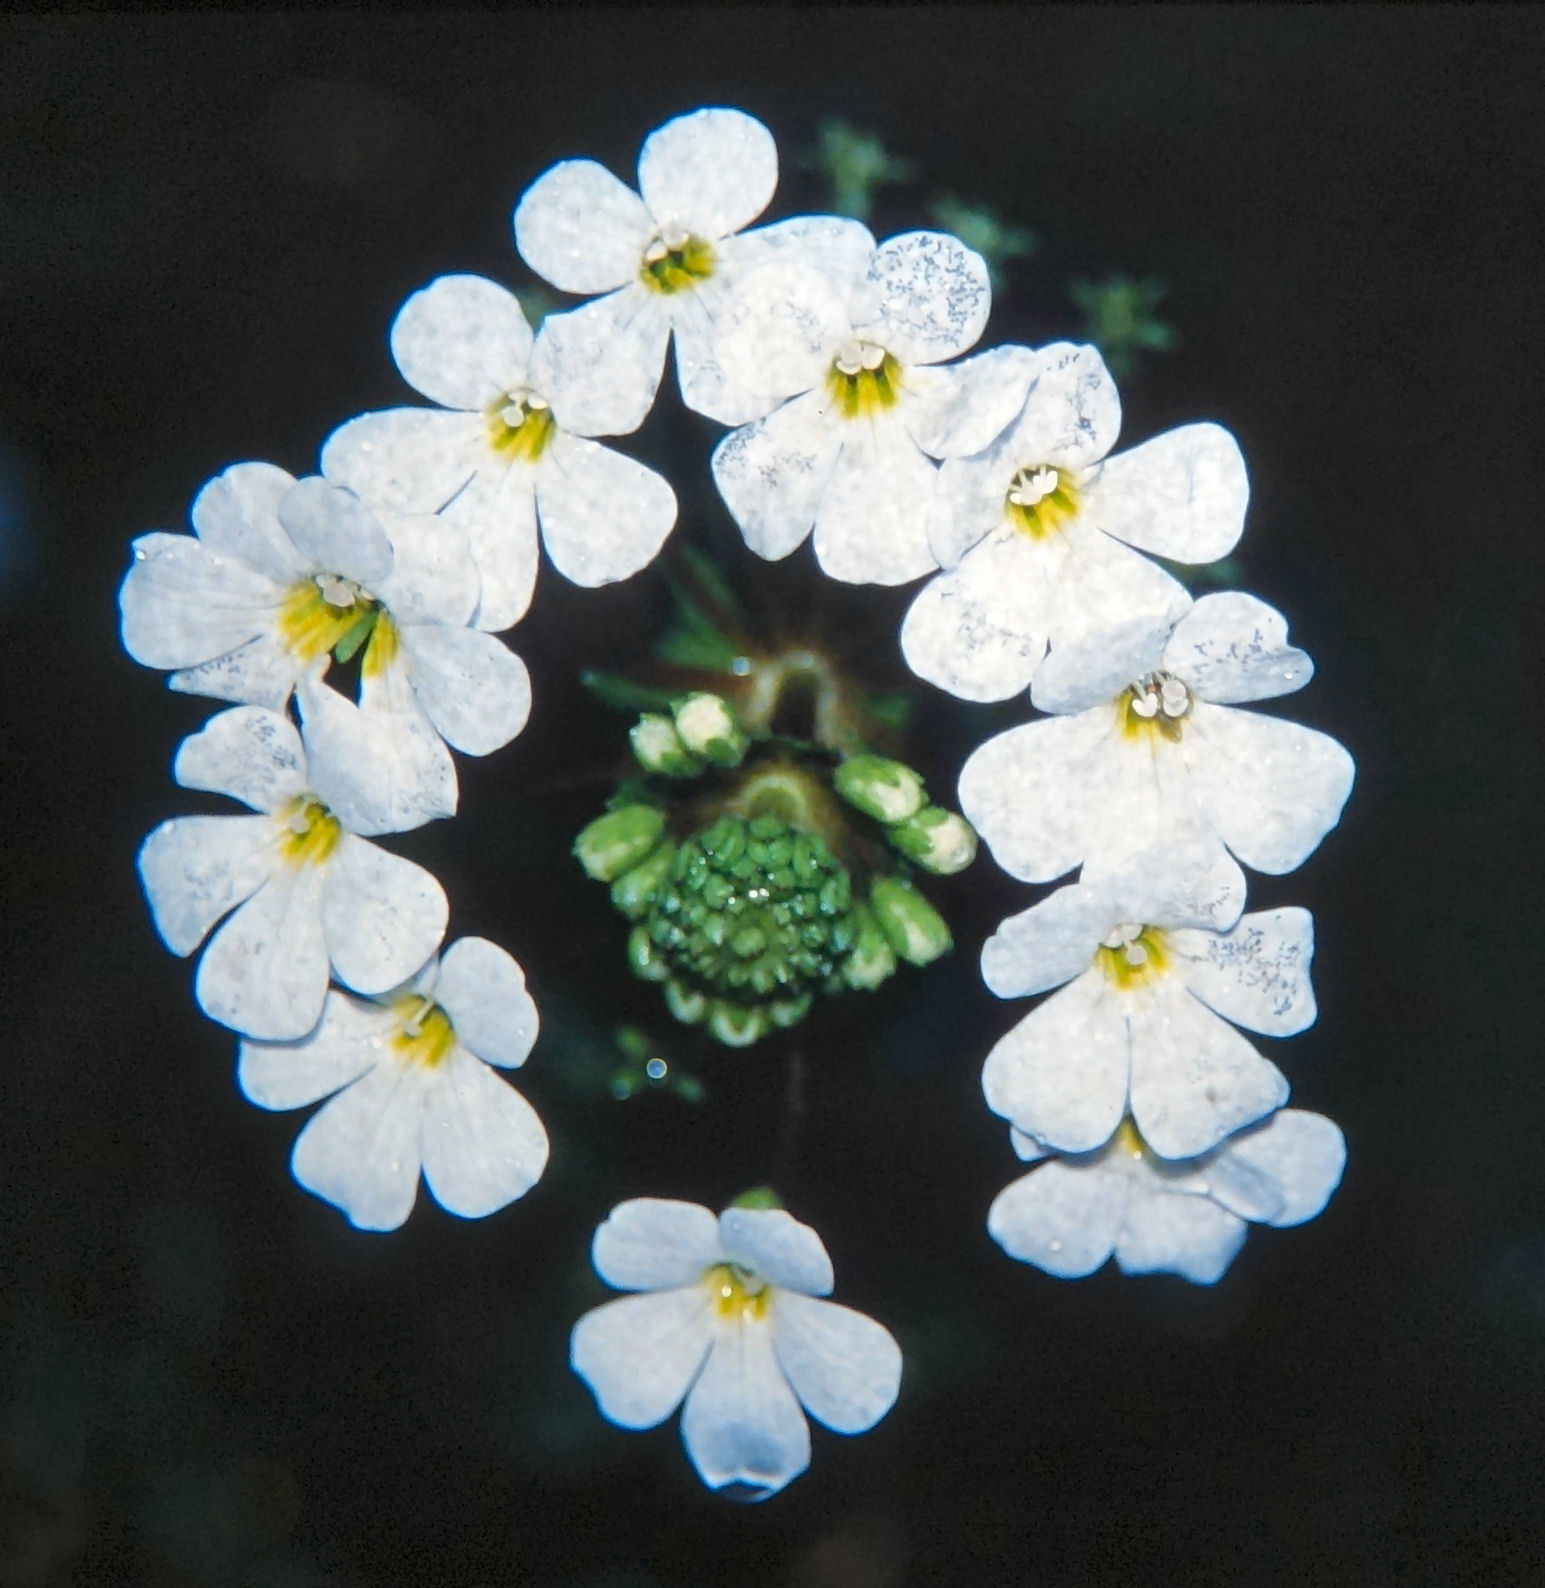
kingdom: Plantae
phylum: Tracheophyta
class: Magnoliopsida
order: Lamiales
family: Plantaginaceae
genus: Ourisia
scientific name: Ourisia macrophylla
